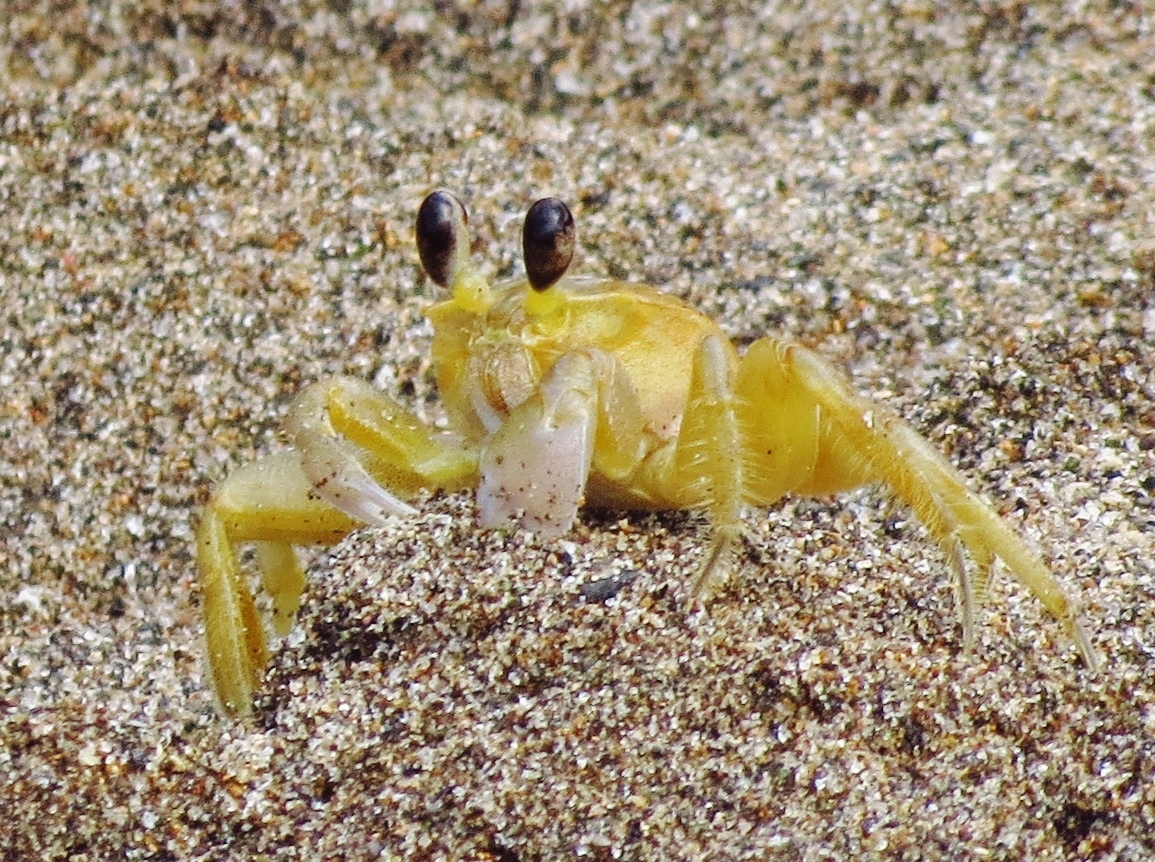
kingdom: Animalia
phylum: Arthropoda
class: Malacostraca
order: Decapoda
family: Ocypodidae
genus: Ocypode
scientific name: Ocypode quadrata
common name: Ghost crab
